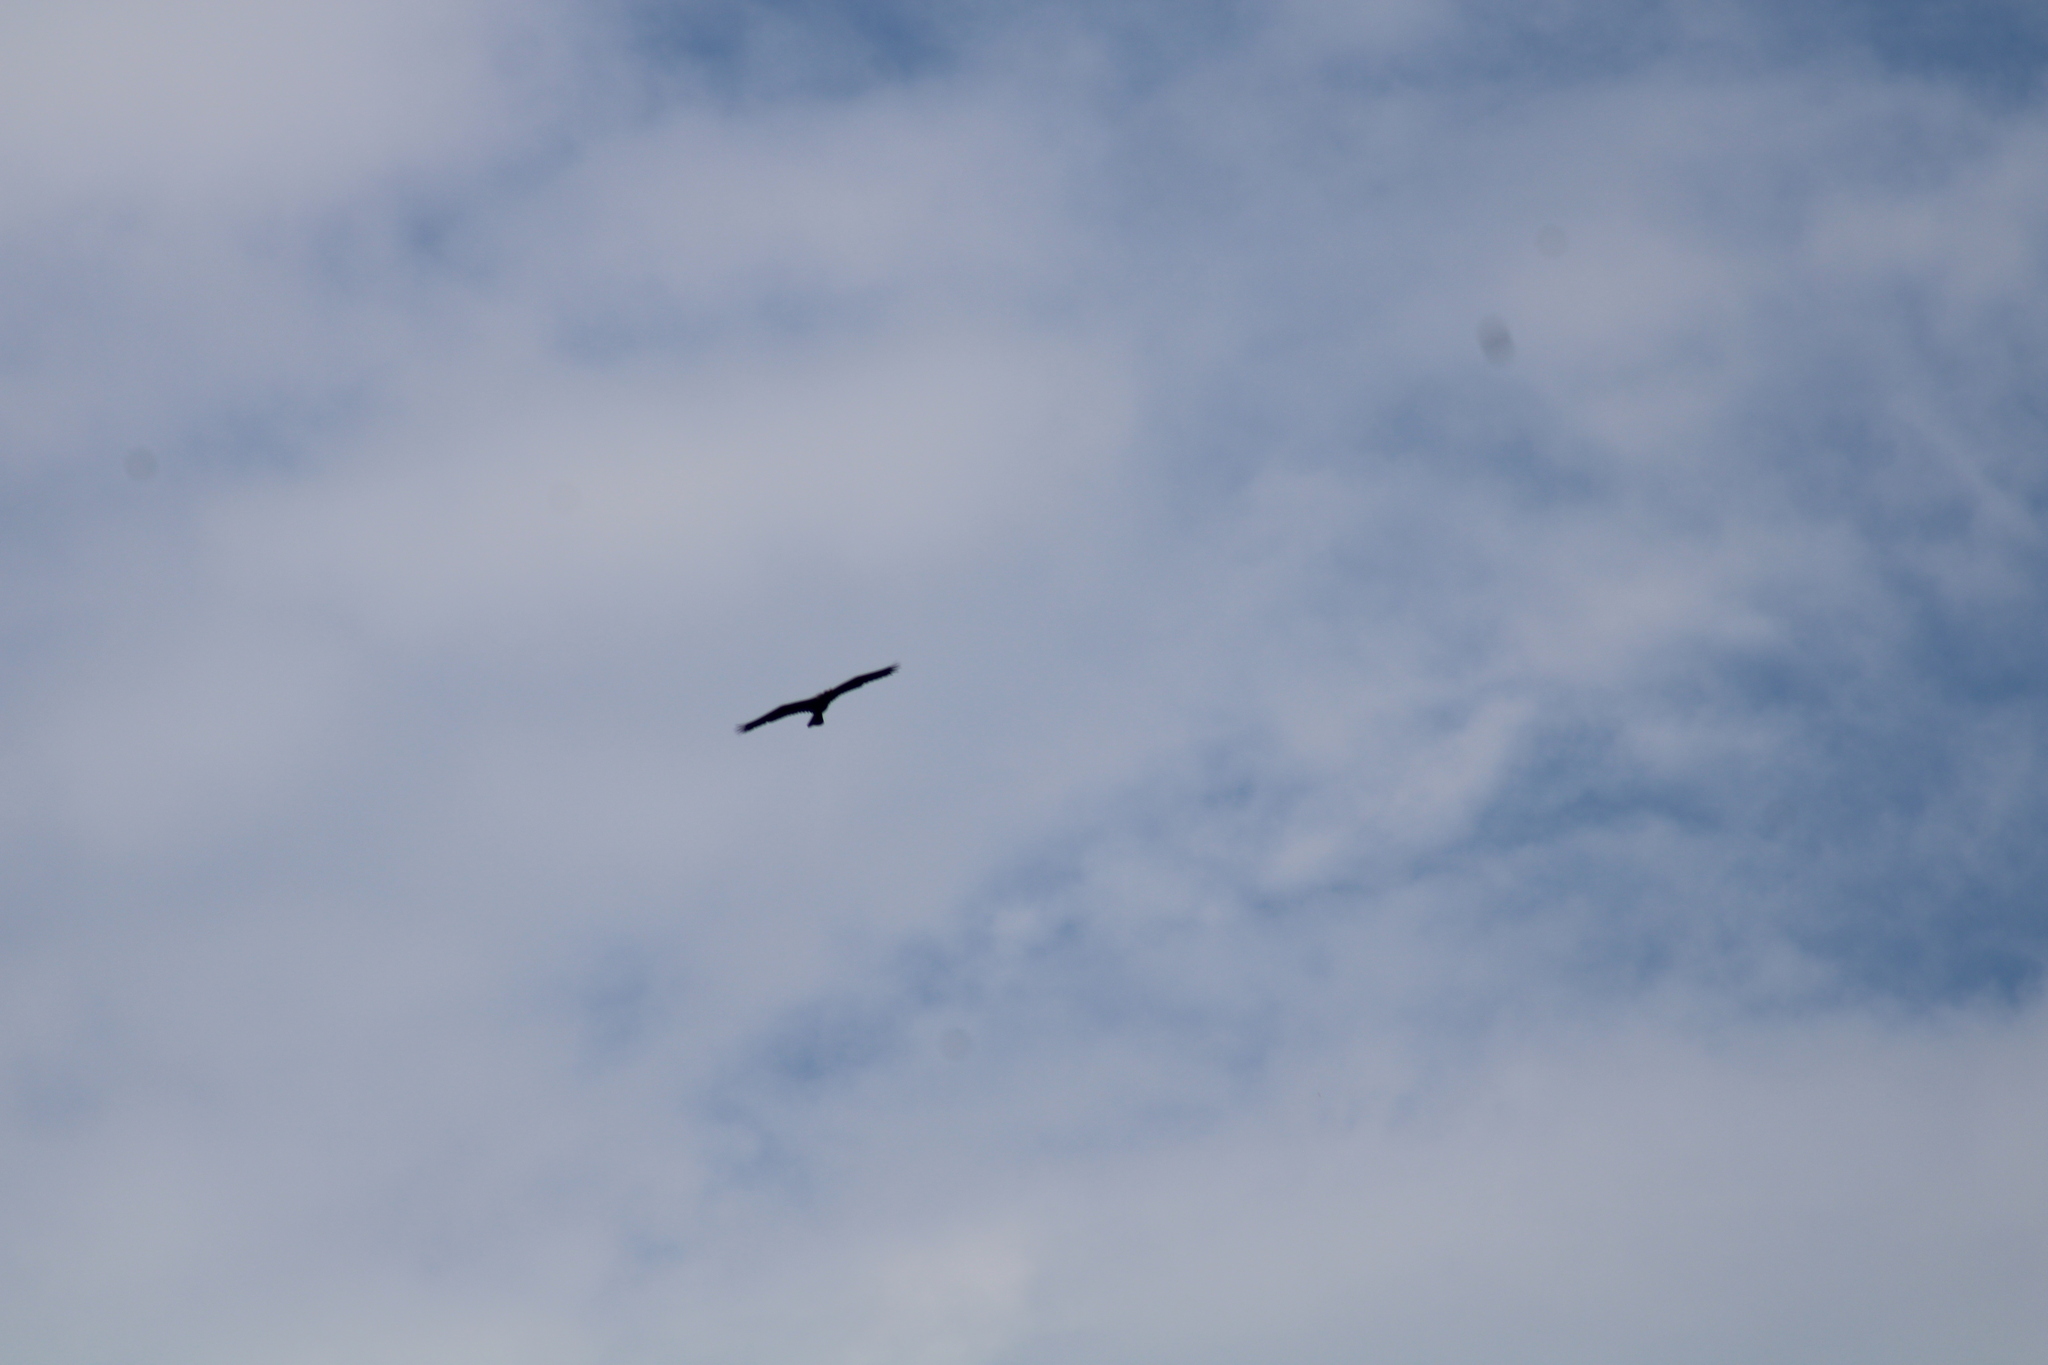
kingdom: Animalia
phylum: Chordata
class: Aves
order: Suliformes
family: Anhingidae
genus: Anhinga
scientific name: Anhinga anhinga
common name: Anhinga
